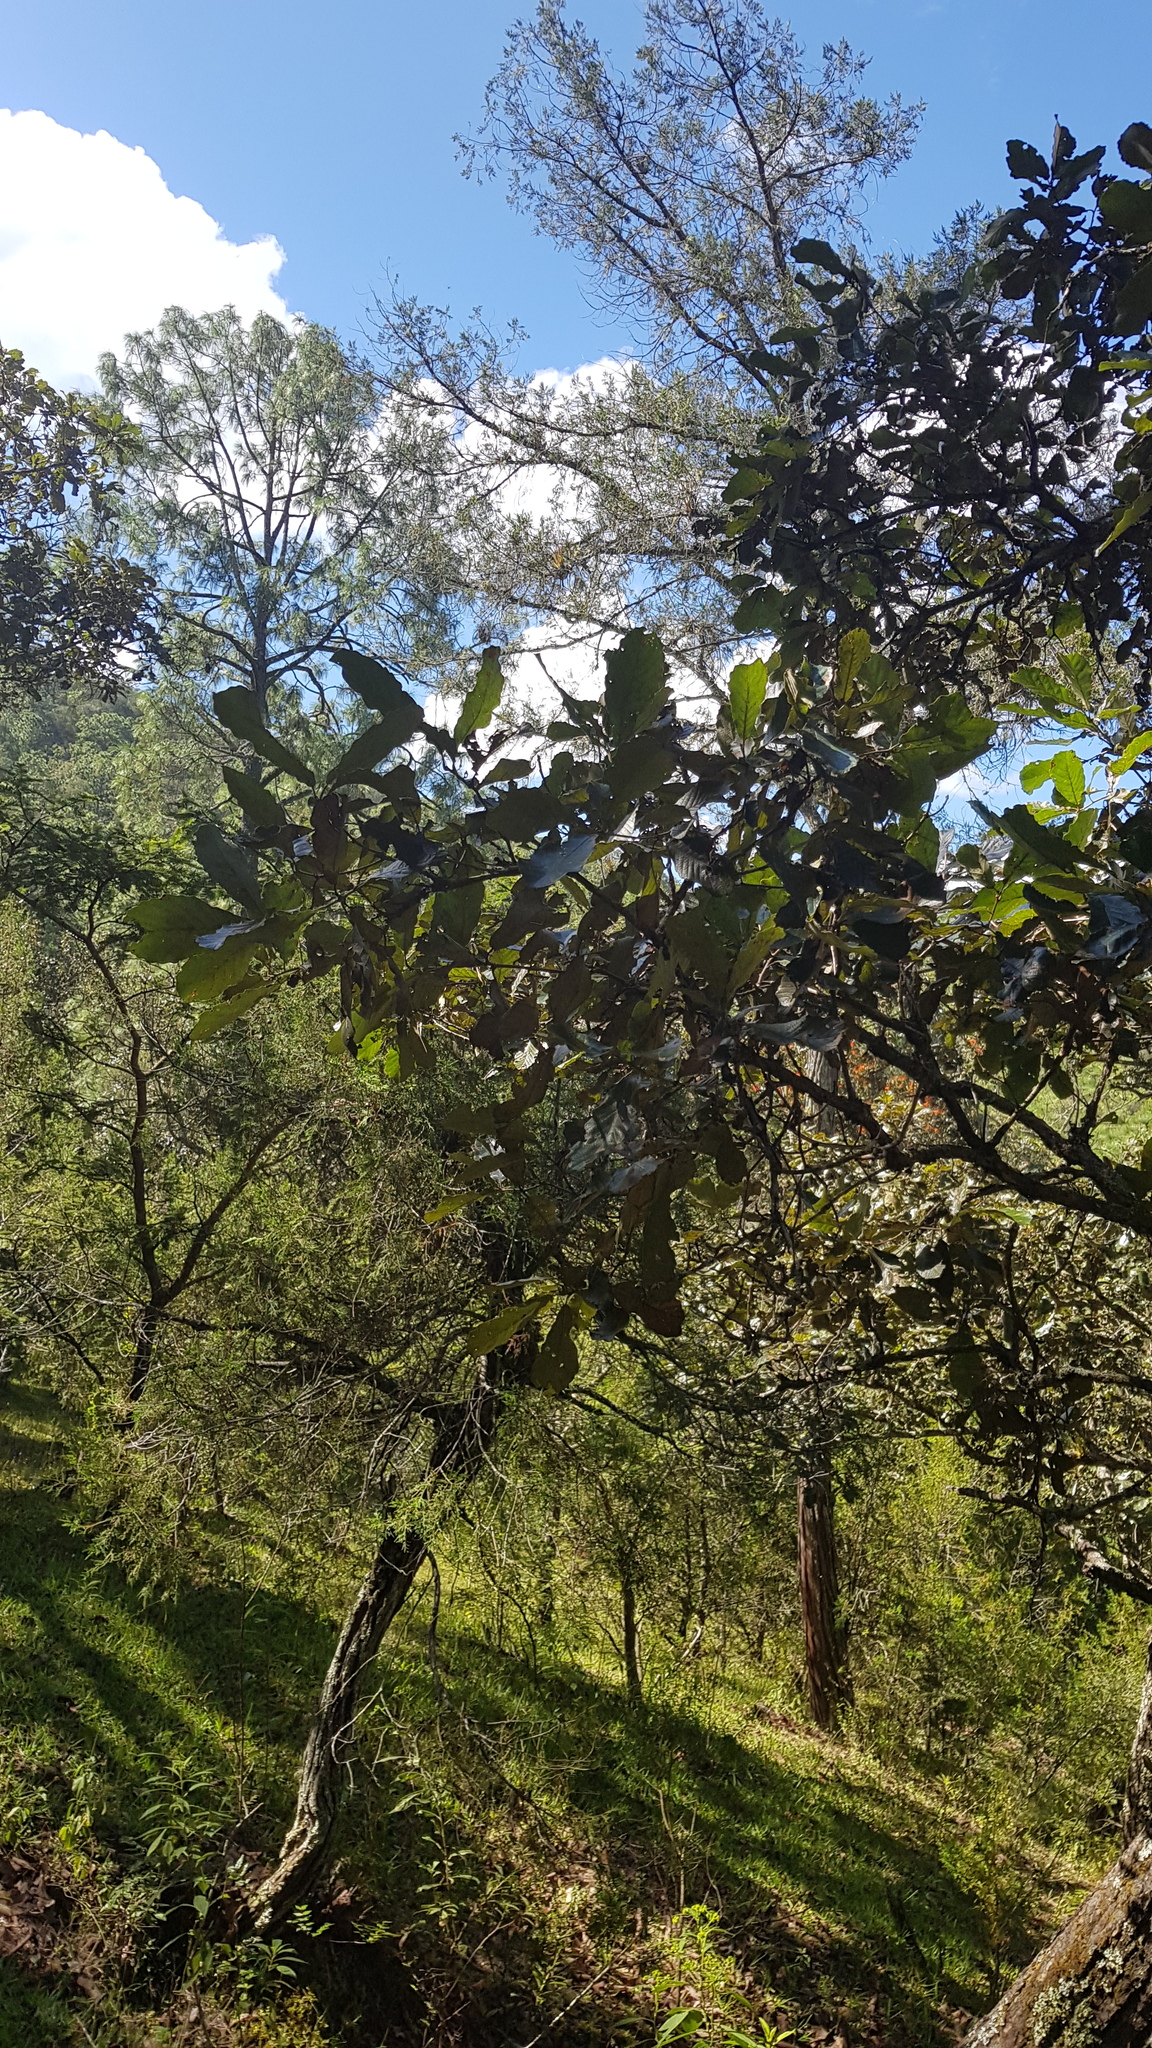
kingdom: Plantae
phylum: Tracheophyta
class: Magnoliopsida
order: Fagales
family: Fagaceae
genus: Quercus
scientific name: Quercus magnoliifolia
